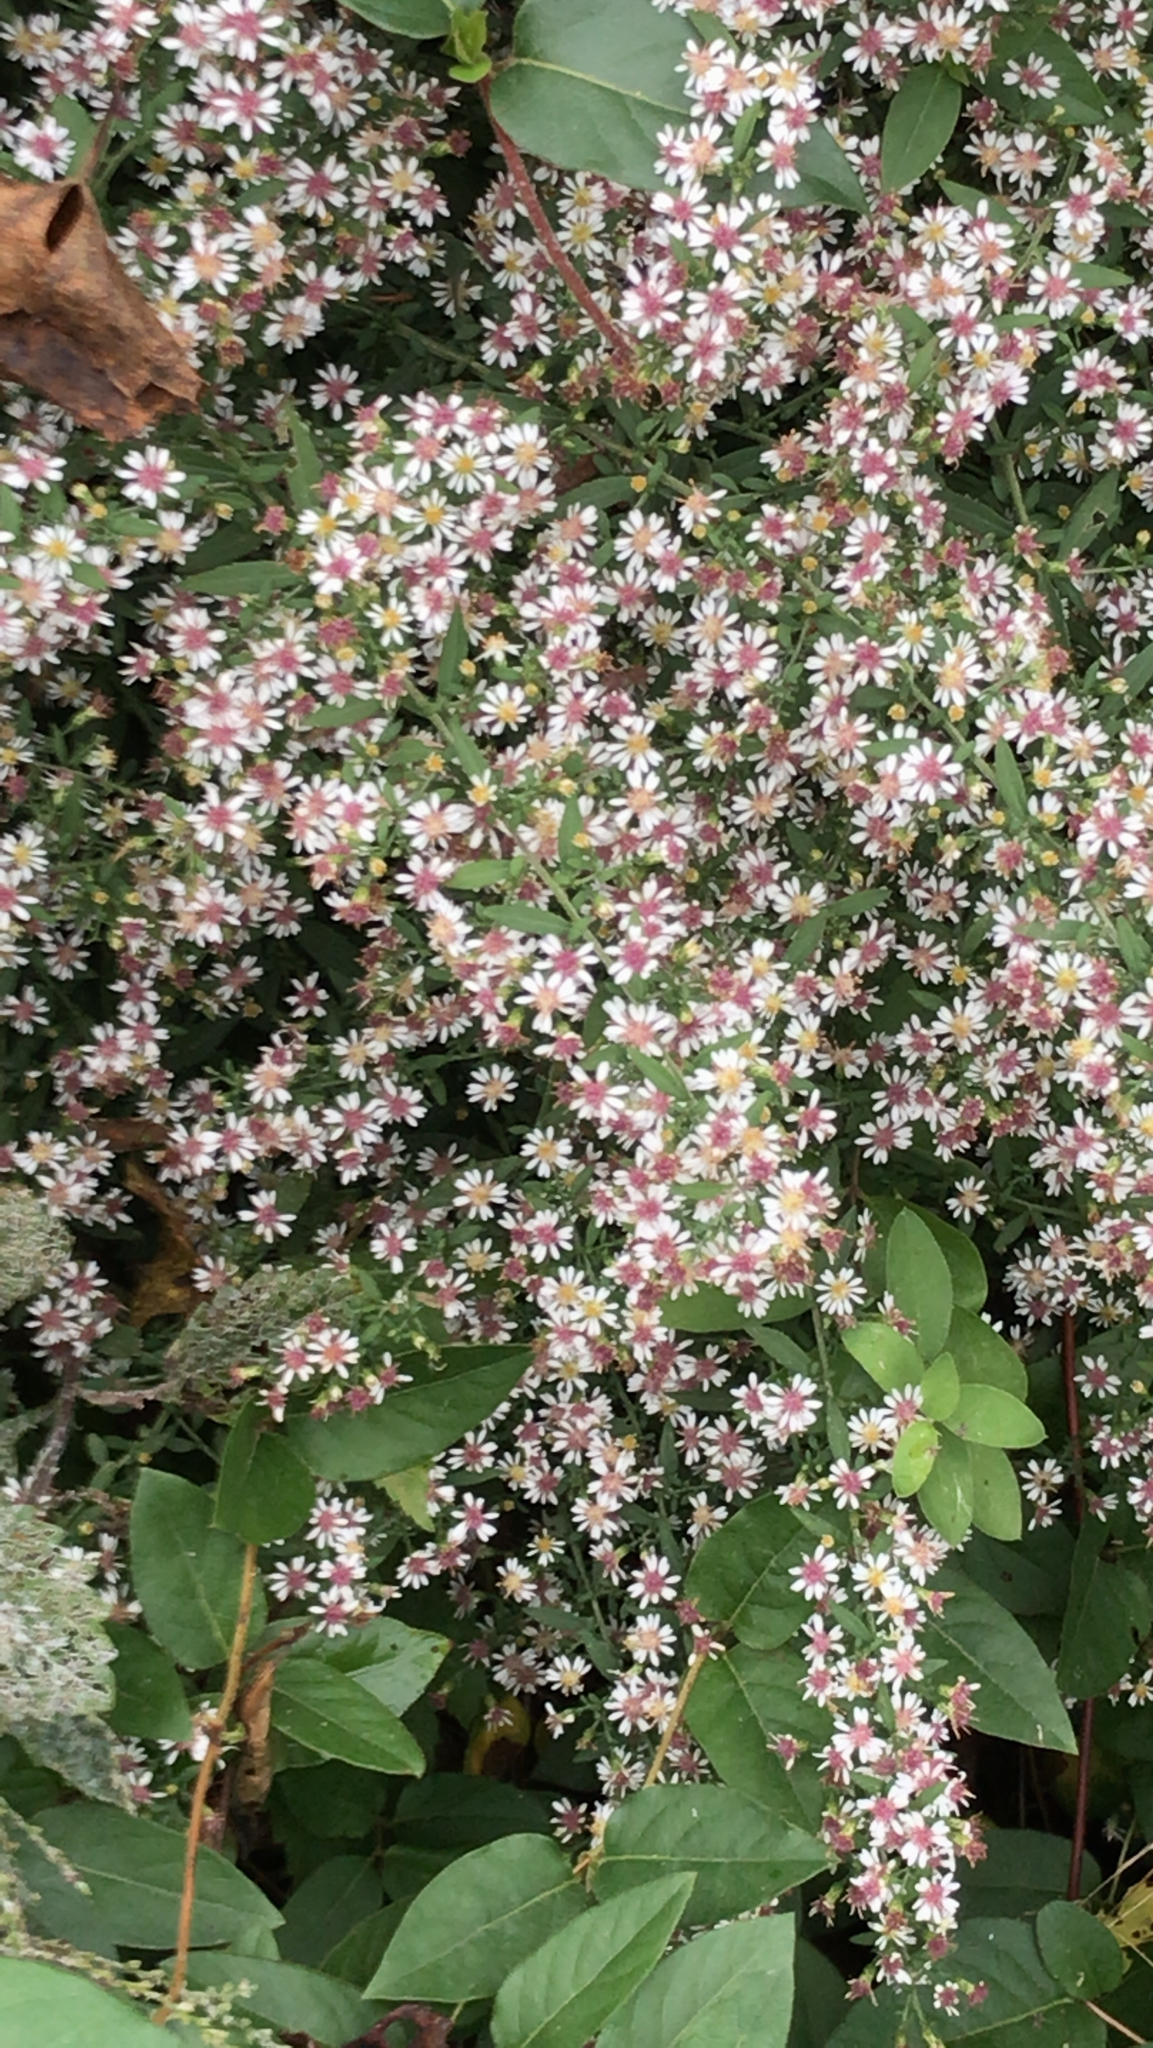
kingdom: Plantae
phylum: Tracheophyta
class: Magnoliopsida
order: Asterales
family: Asteraceae
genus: Symphyotrichum
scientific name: Symphyotrichum lateriflorum
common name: Calico aster
